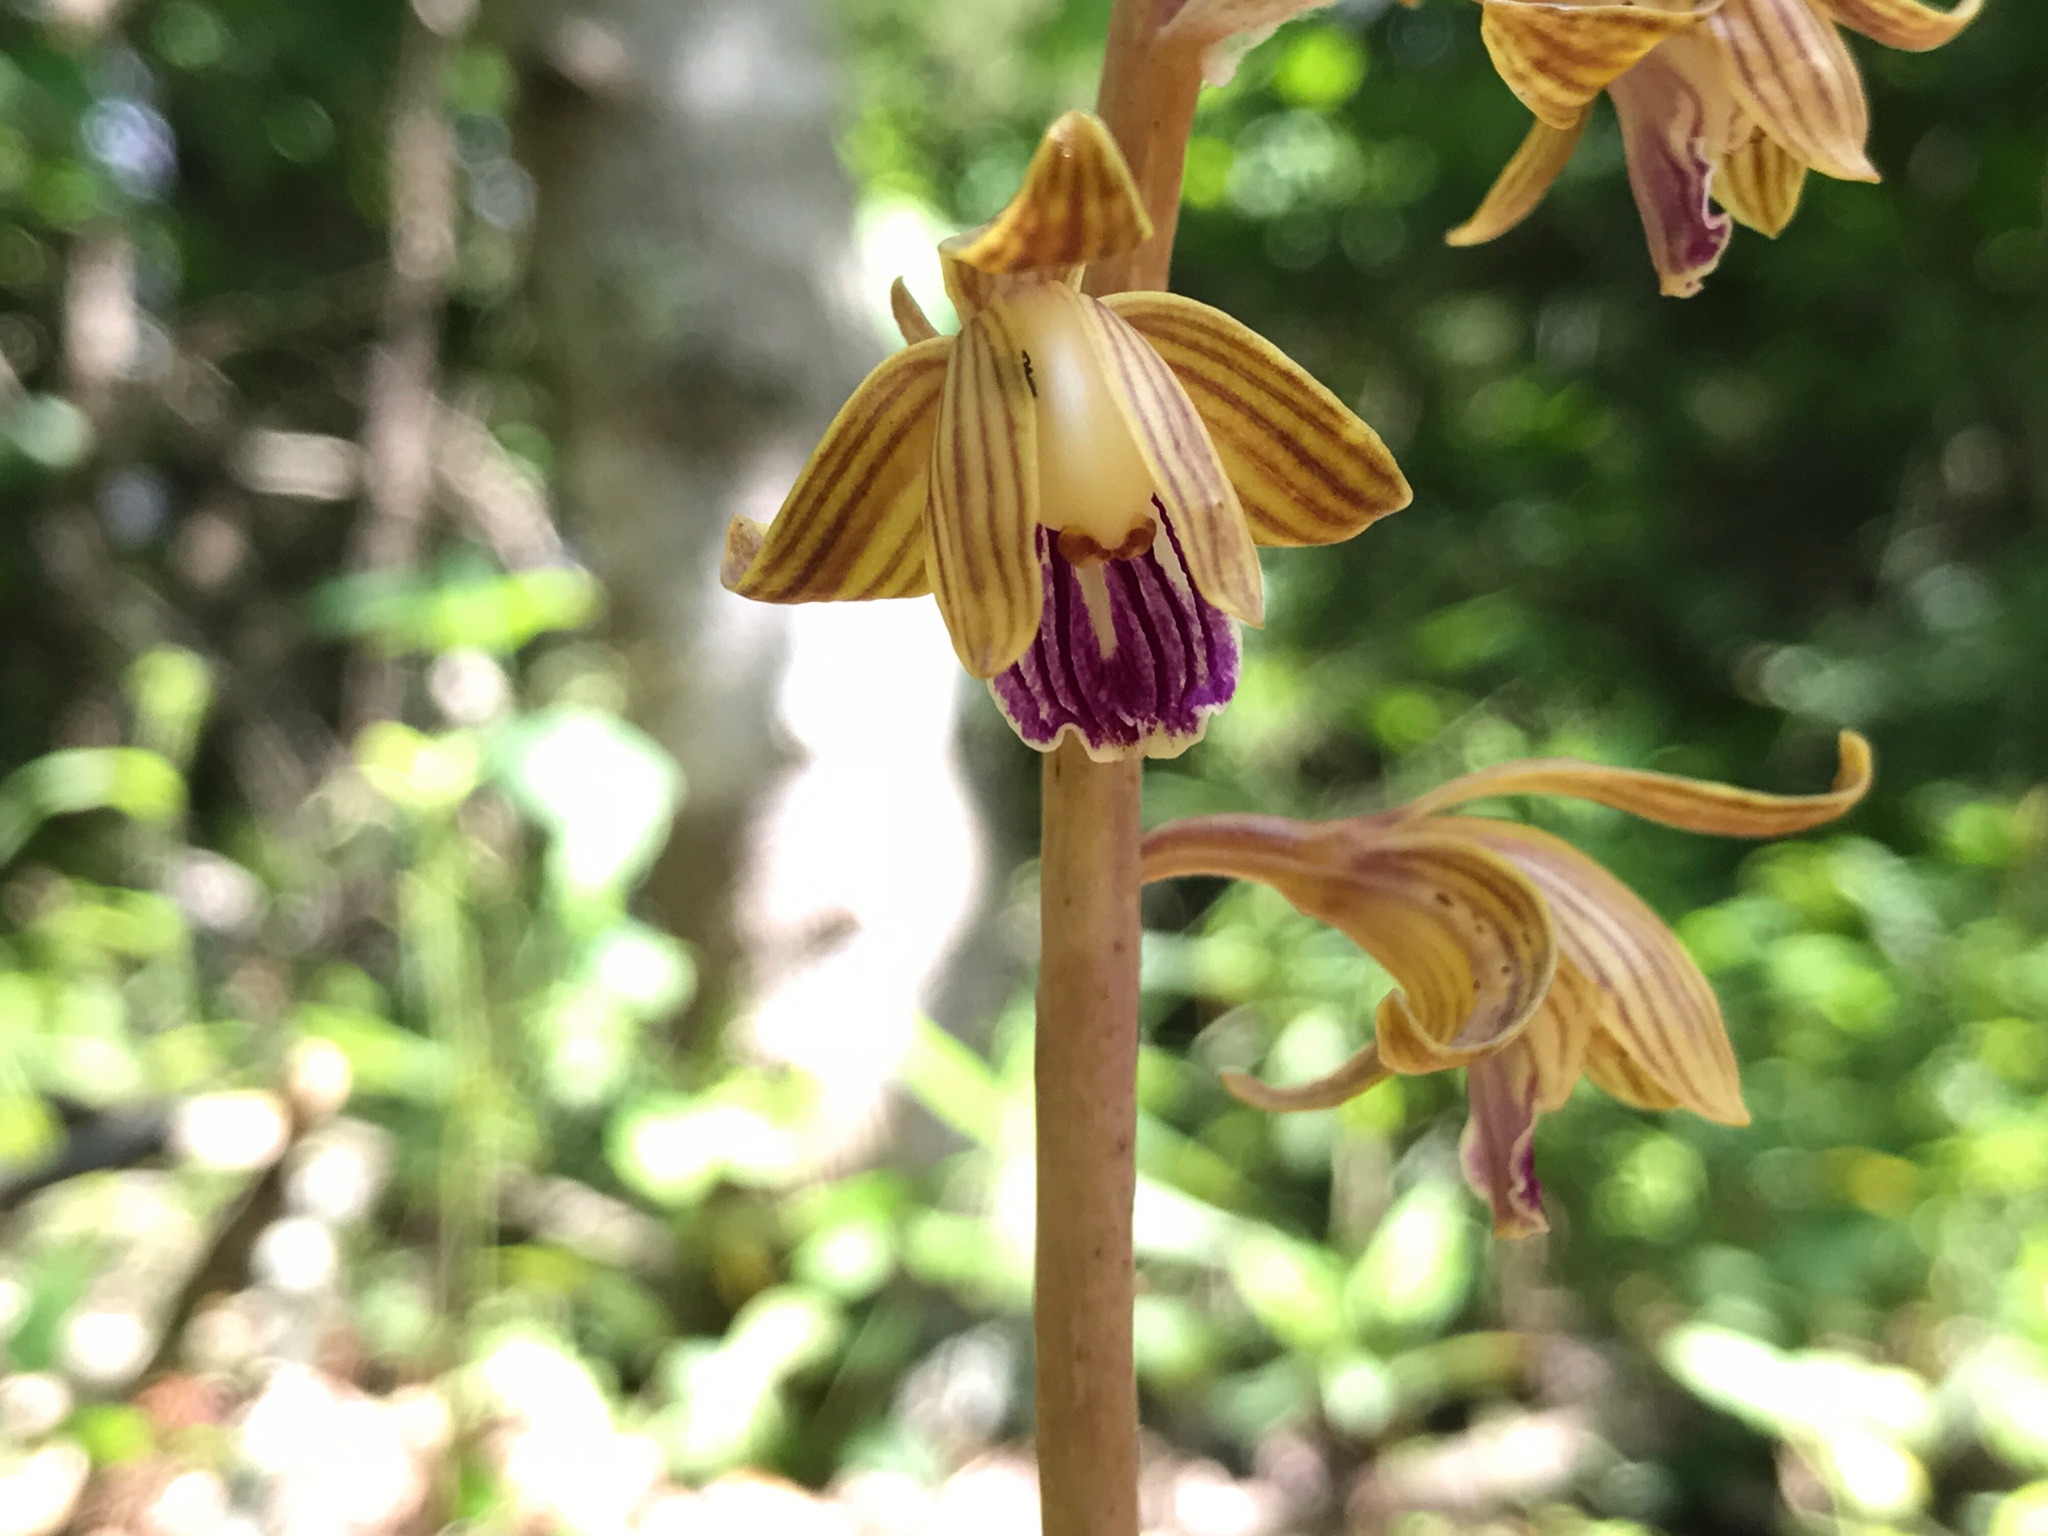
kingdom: Plantae
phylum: Tracheophyta
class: Liliopsida
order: Asparagales
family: Orchidaceae
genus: Bletia
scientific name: Bletia spicata
